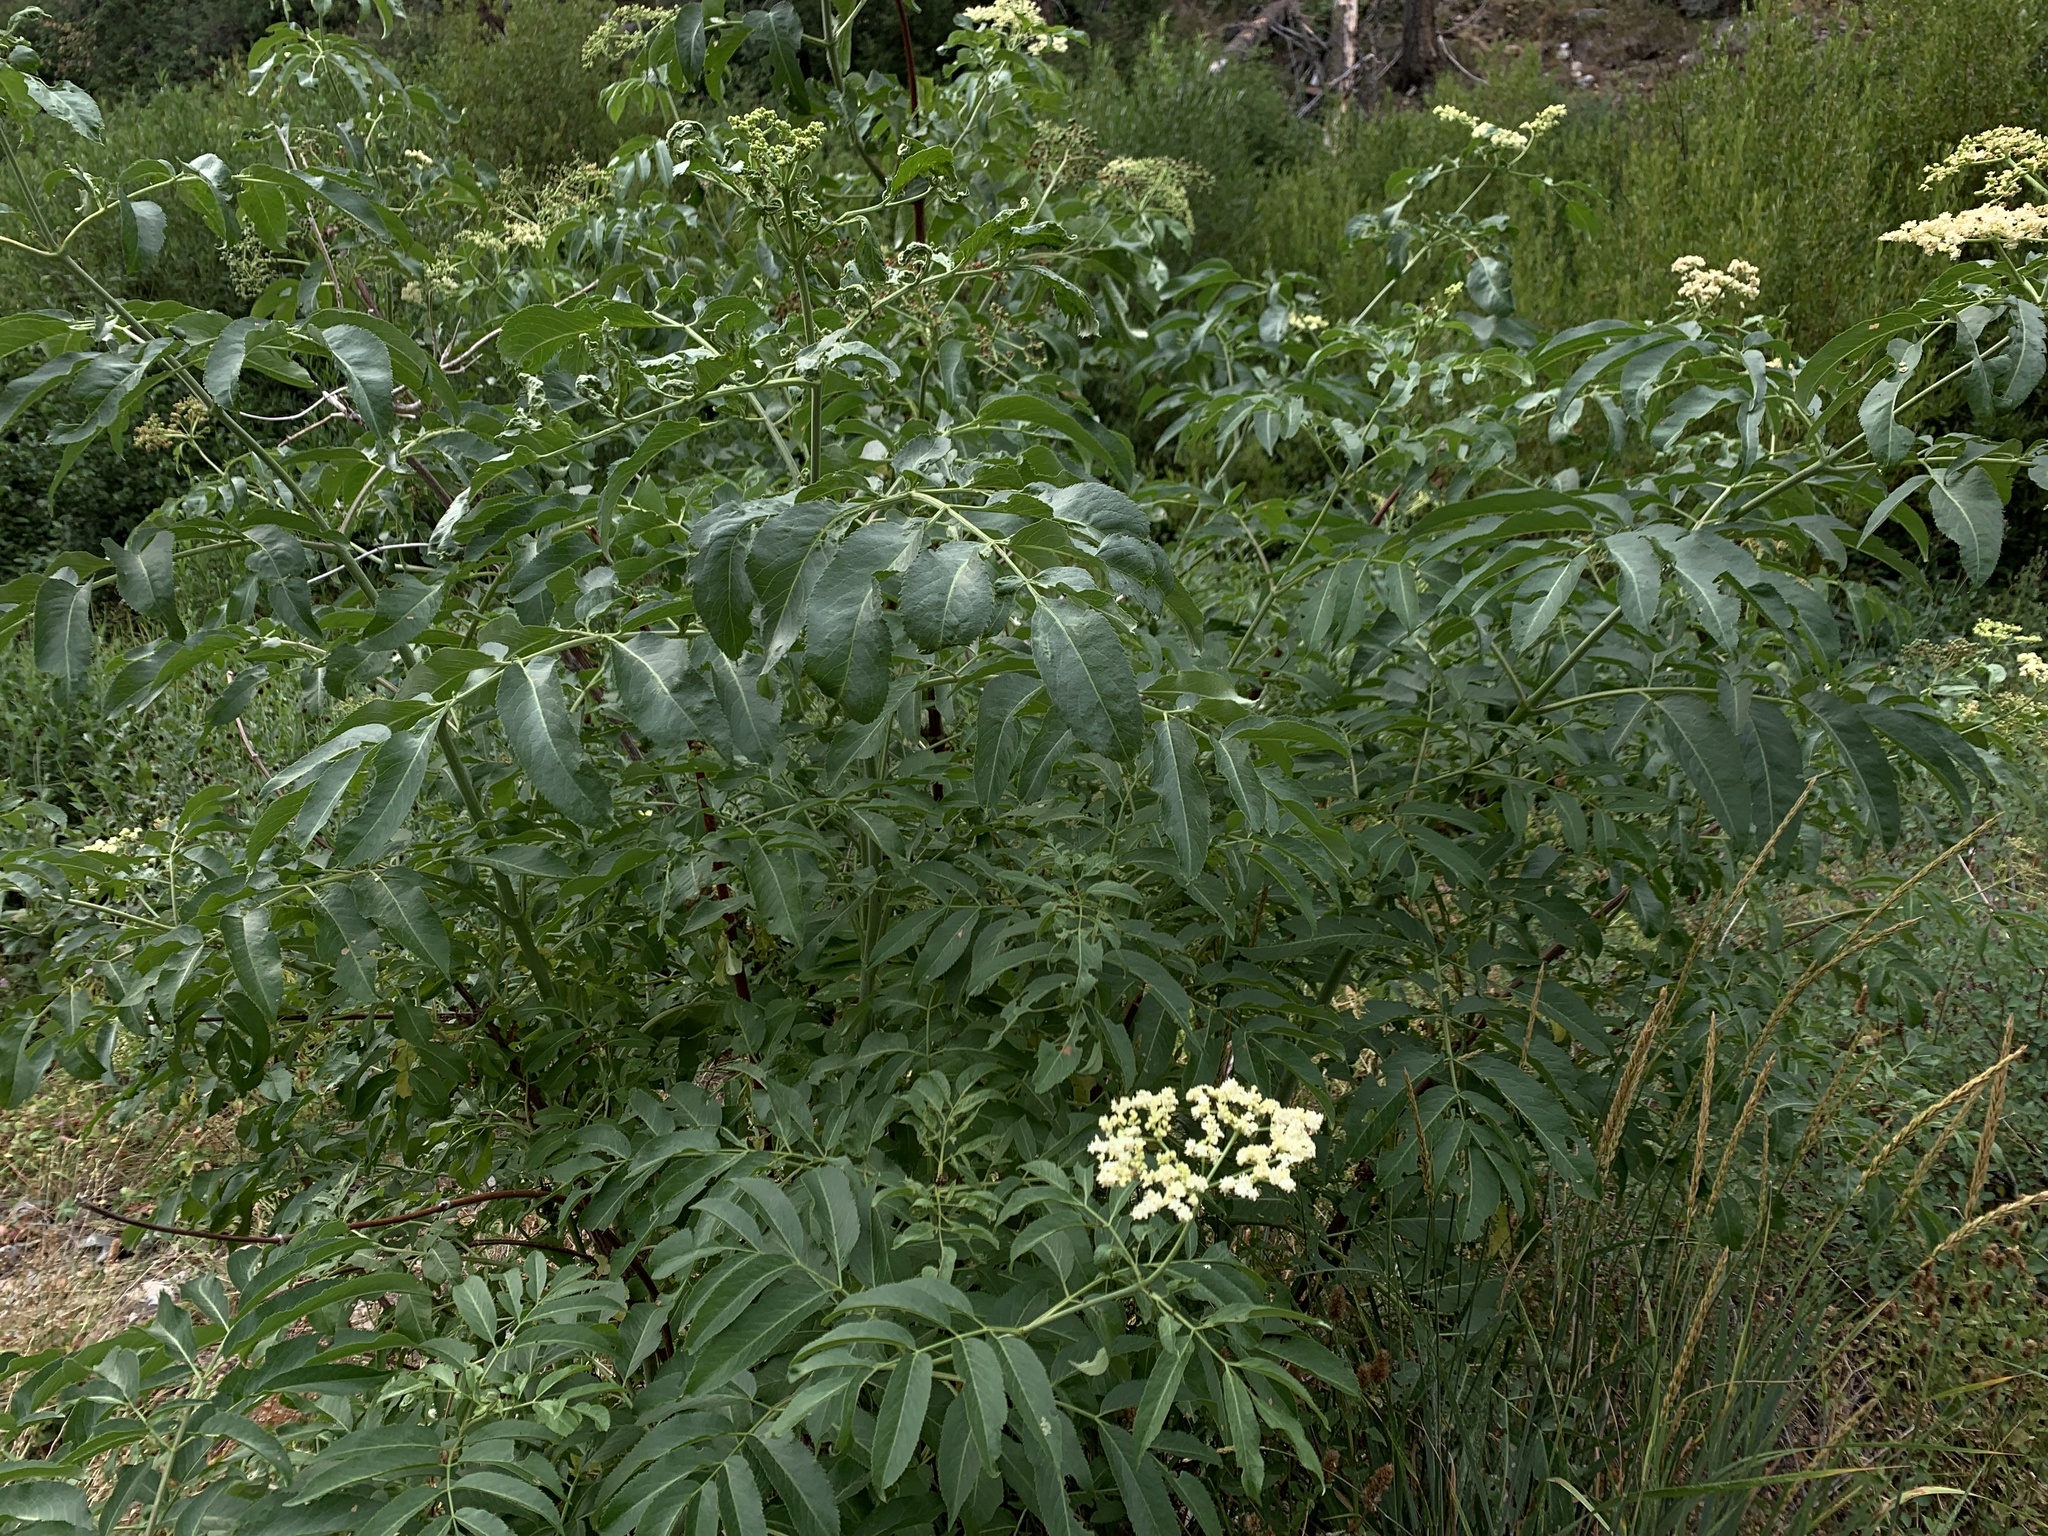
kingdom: Plantae
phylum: Tracheophyta
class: Magnoliopsida
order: Dipsacales
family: Viburnaceae
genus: Sambucus
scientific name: Sambucus cerulea
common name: Blue elder
